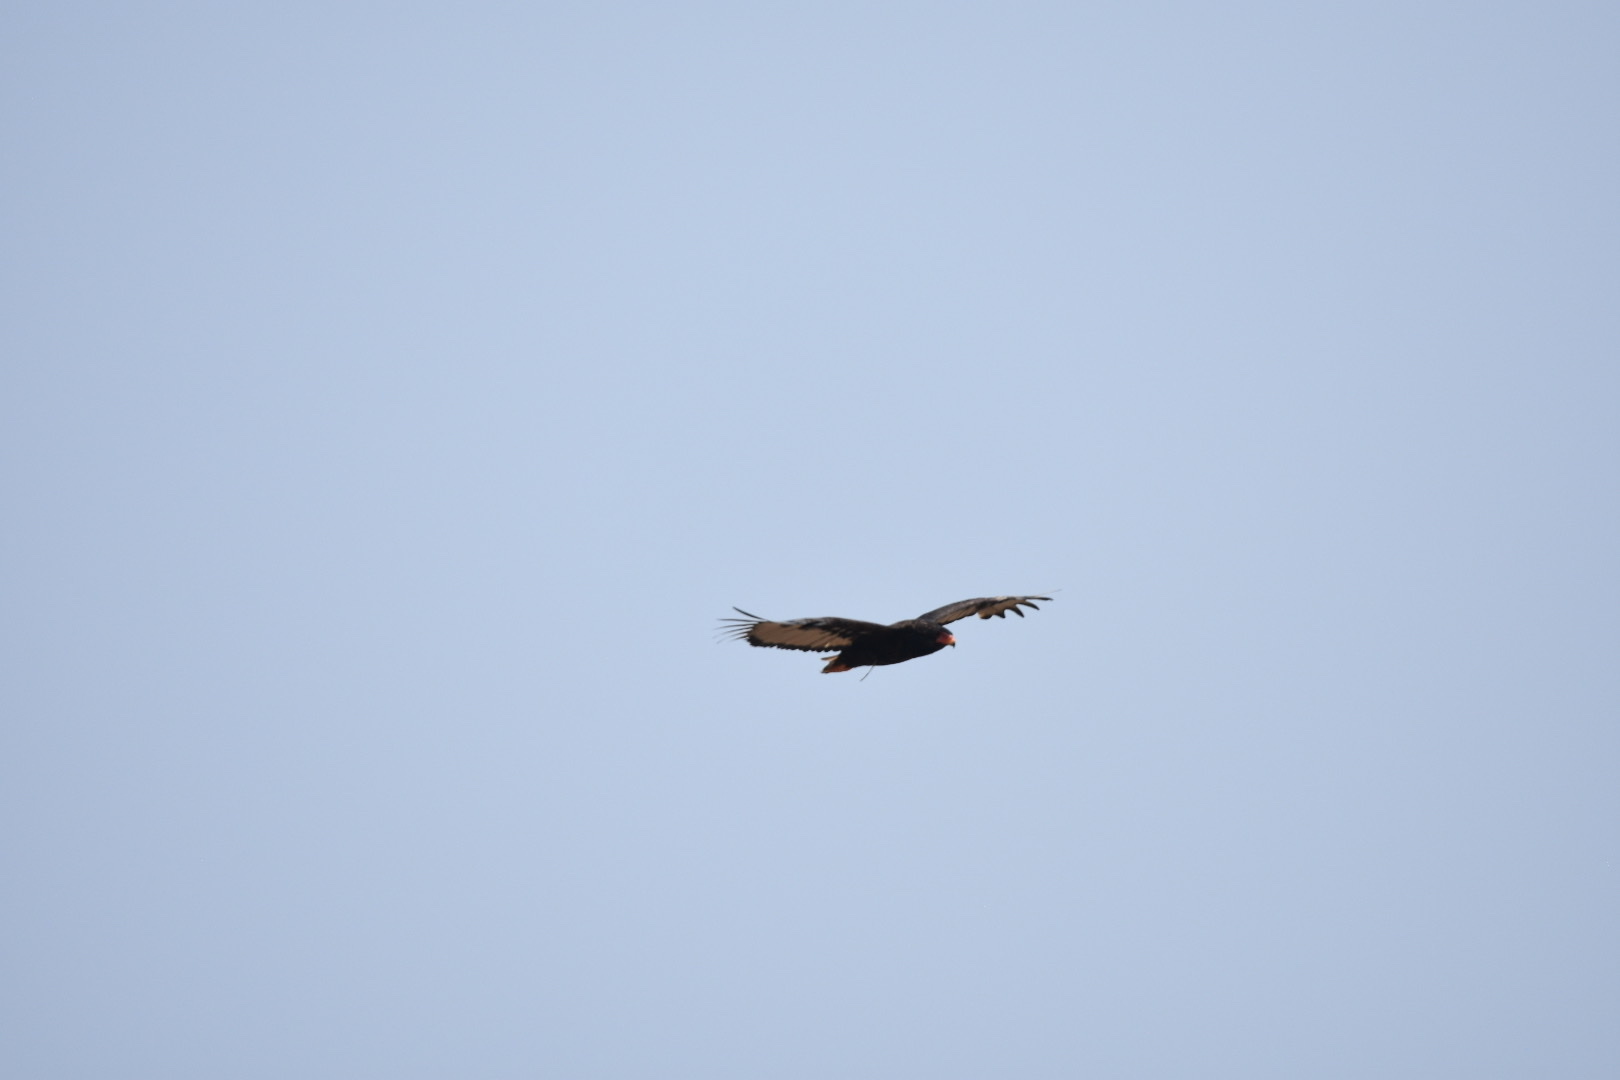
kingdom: Animalia
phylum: Chordata
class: Aves
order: Accipitriformes
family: Accipitridae
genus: Terathopius
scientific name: Terathopius ecaudatus
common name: Bateleur
